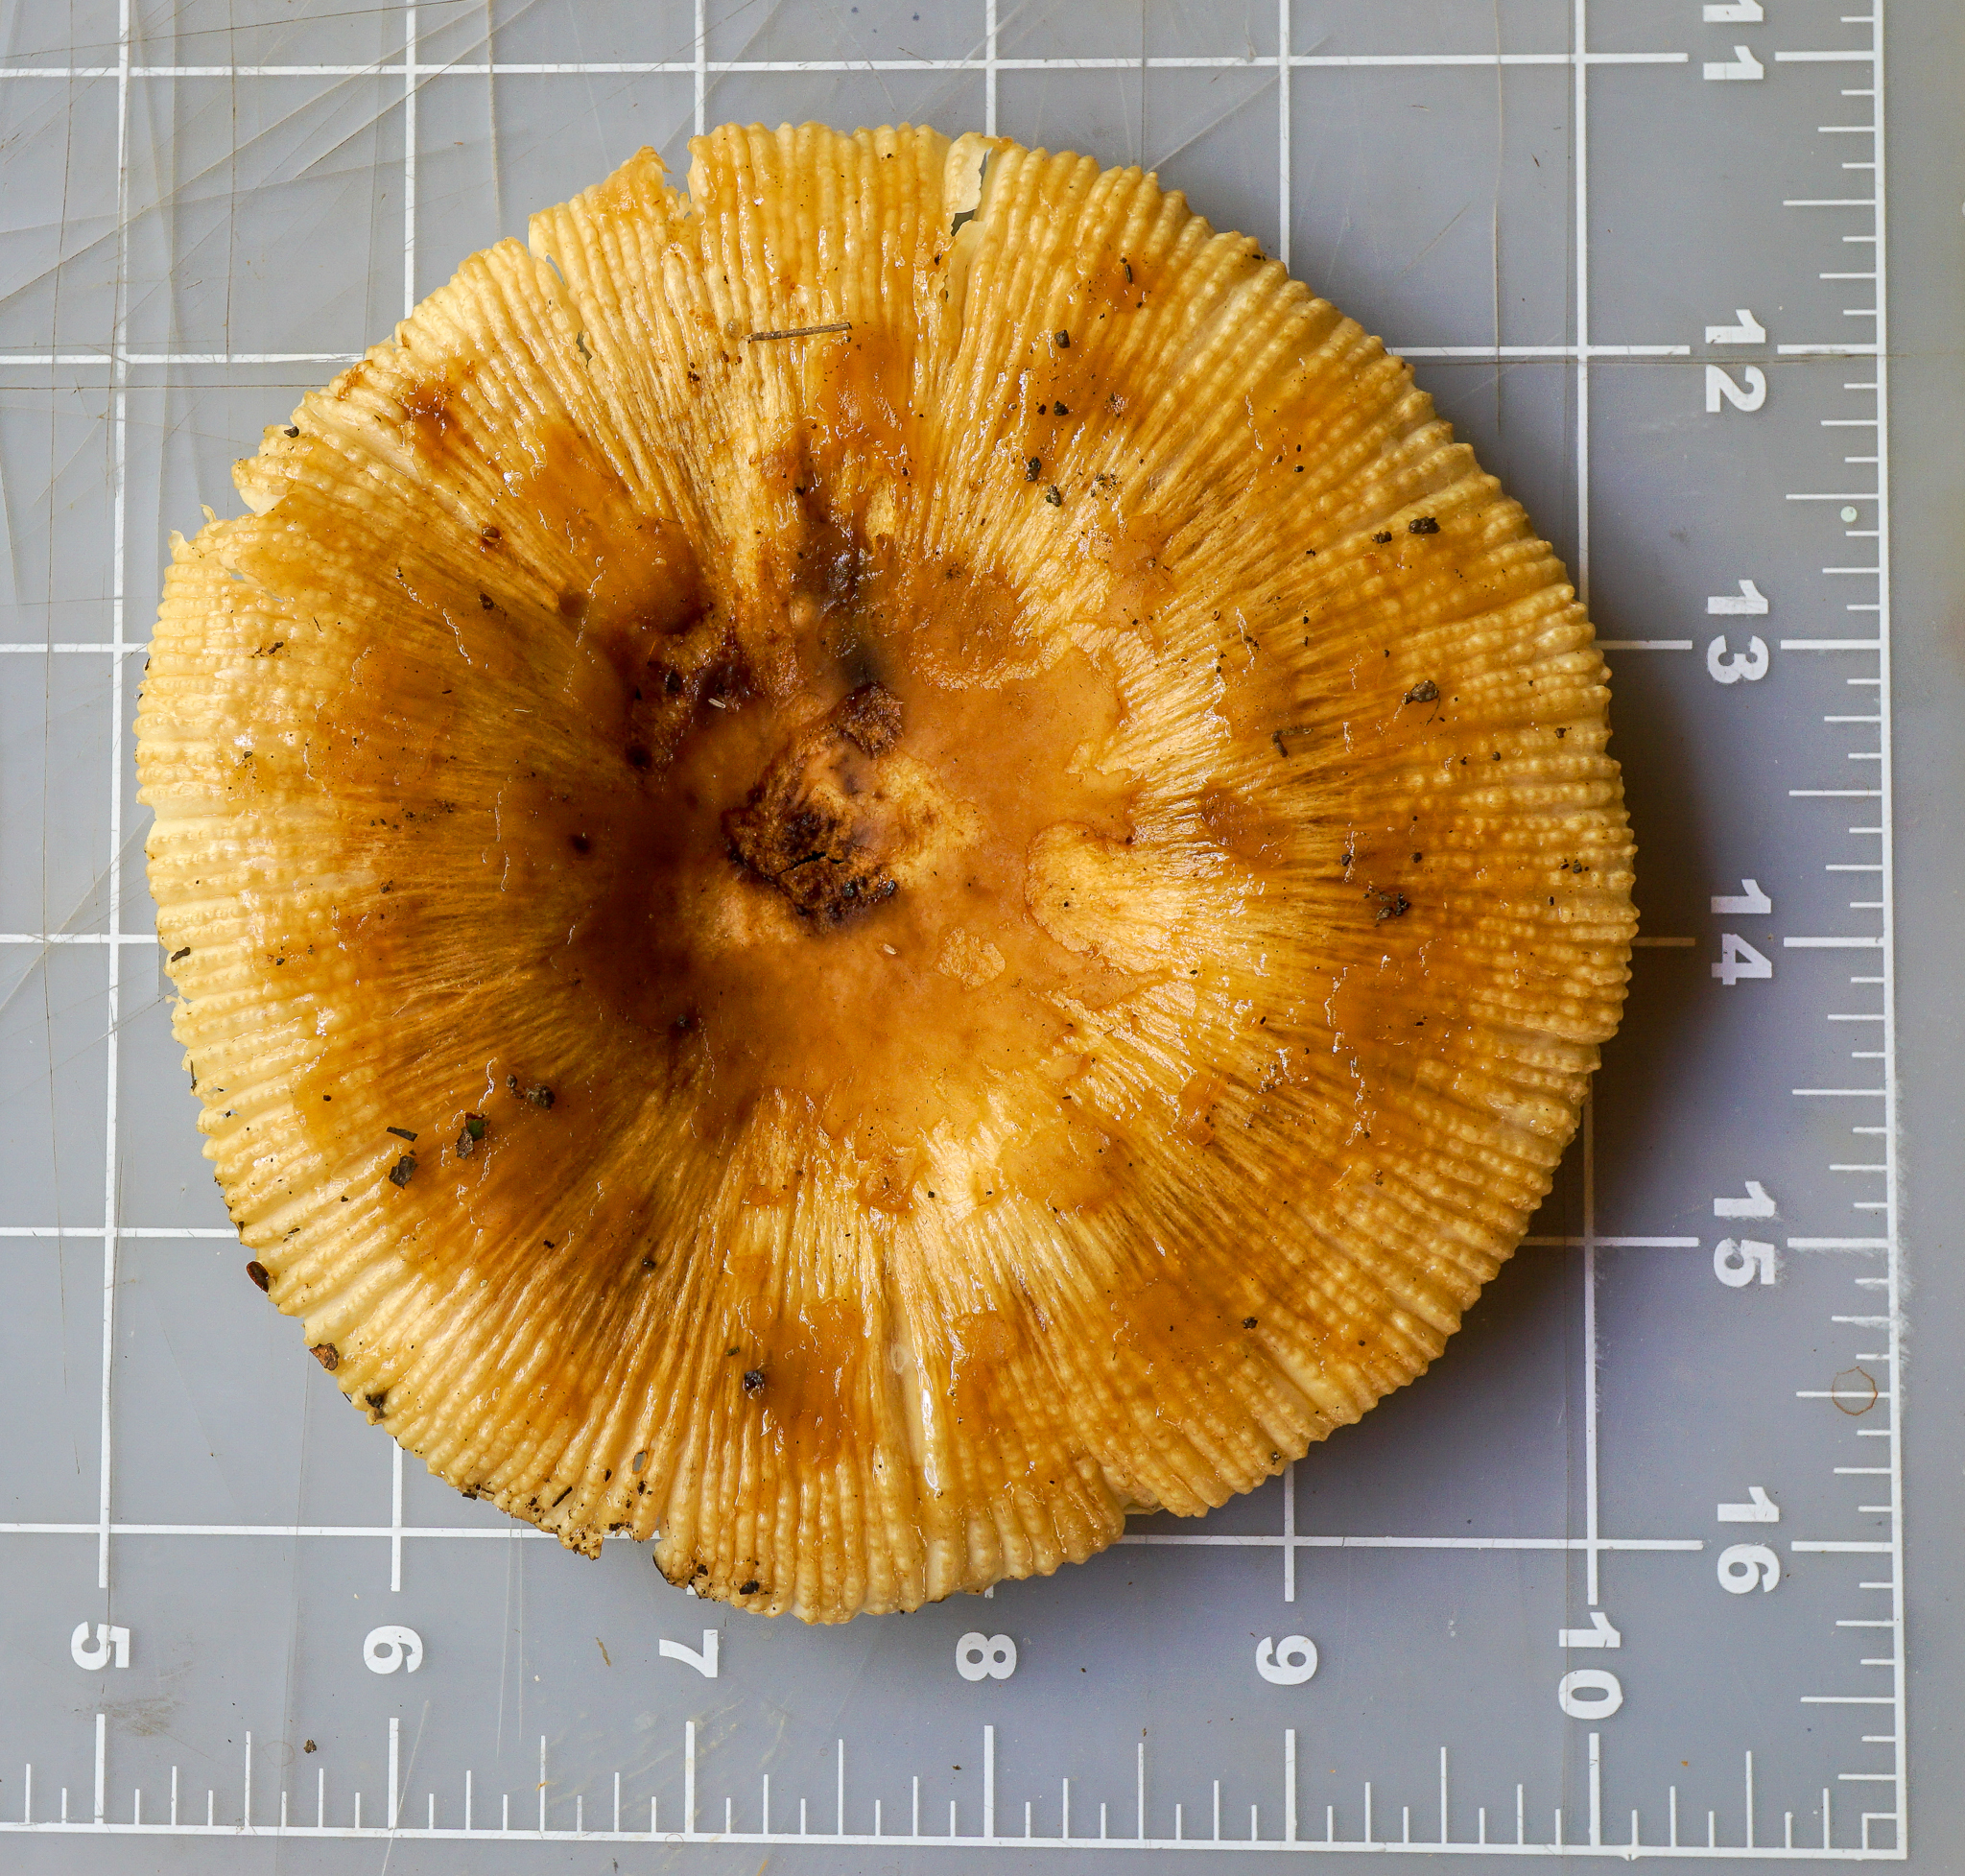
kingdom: Fungi
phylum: Basidiomycota
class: Agaricomycetes
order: Russulales
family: Russulaceae
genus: Russula
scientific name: Russula grata
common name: Bitter almond brittlegill
